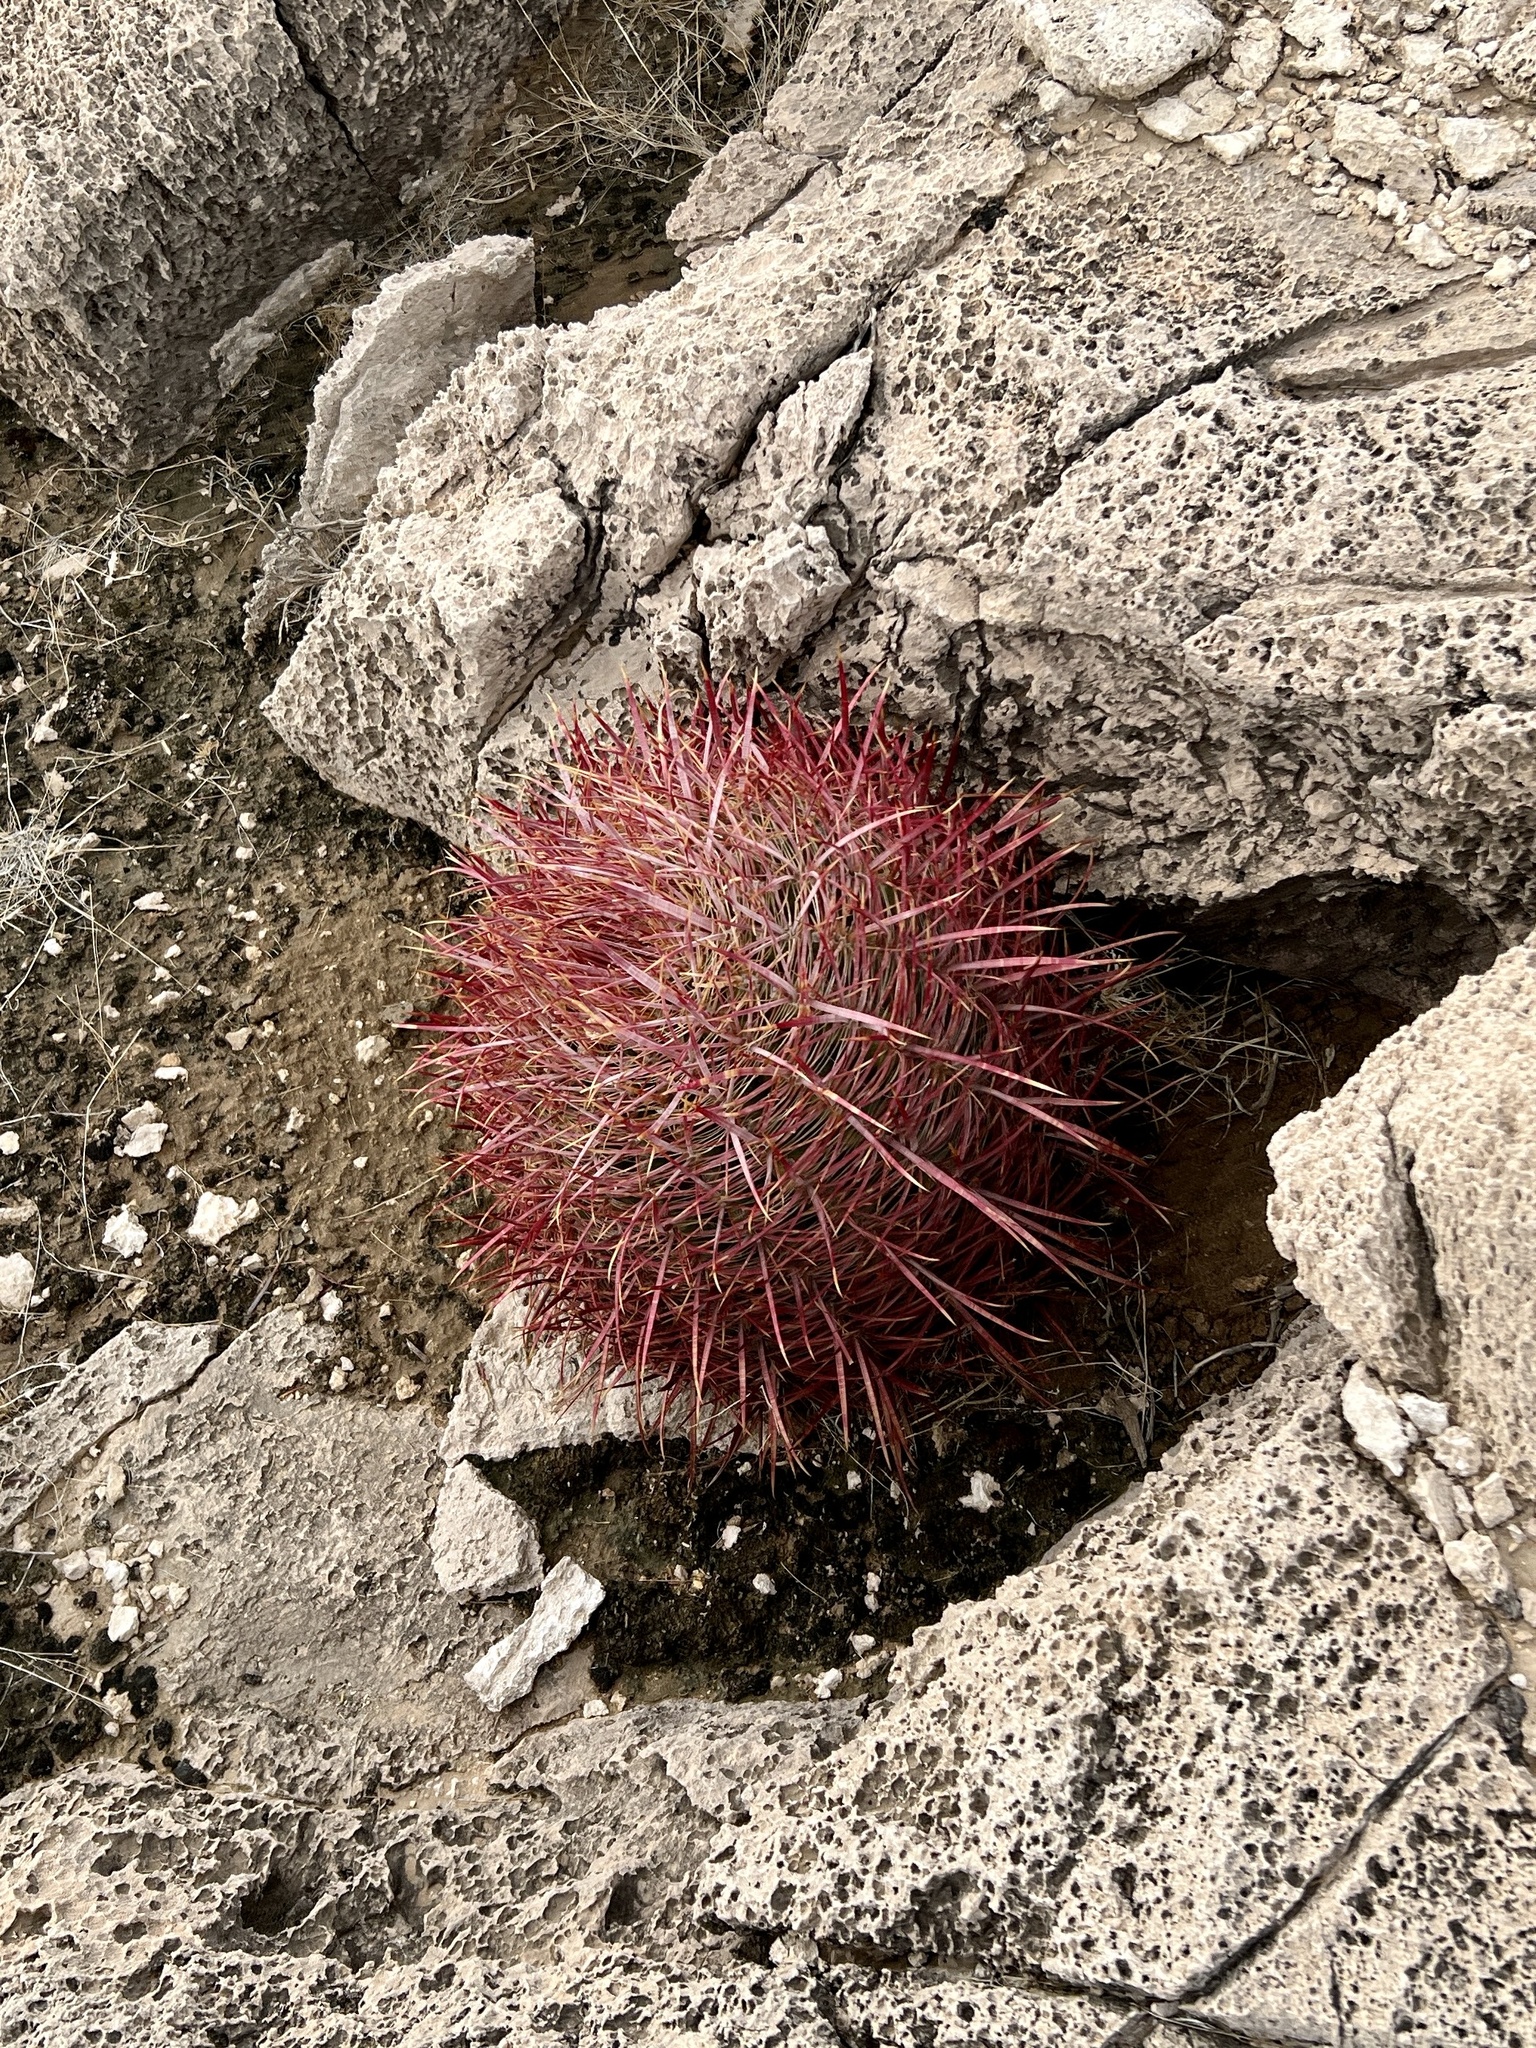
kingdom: Plantae
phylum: Tracheophyta
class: Magnoliopsida
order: Caryophyllales
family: Cactaceae
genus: Ferocactus
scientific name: Ferocactus cylindraceus
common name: California barrel cactus
